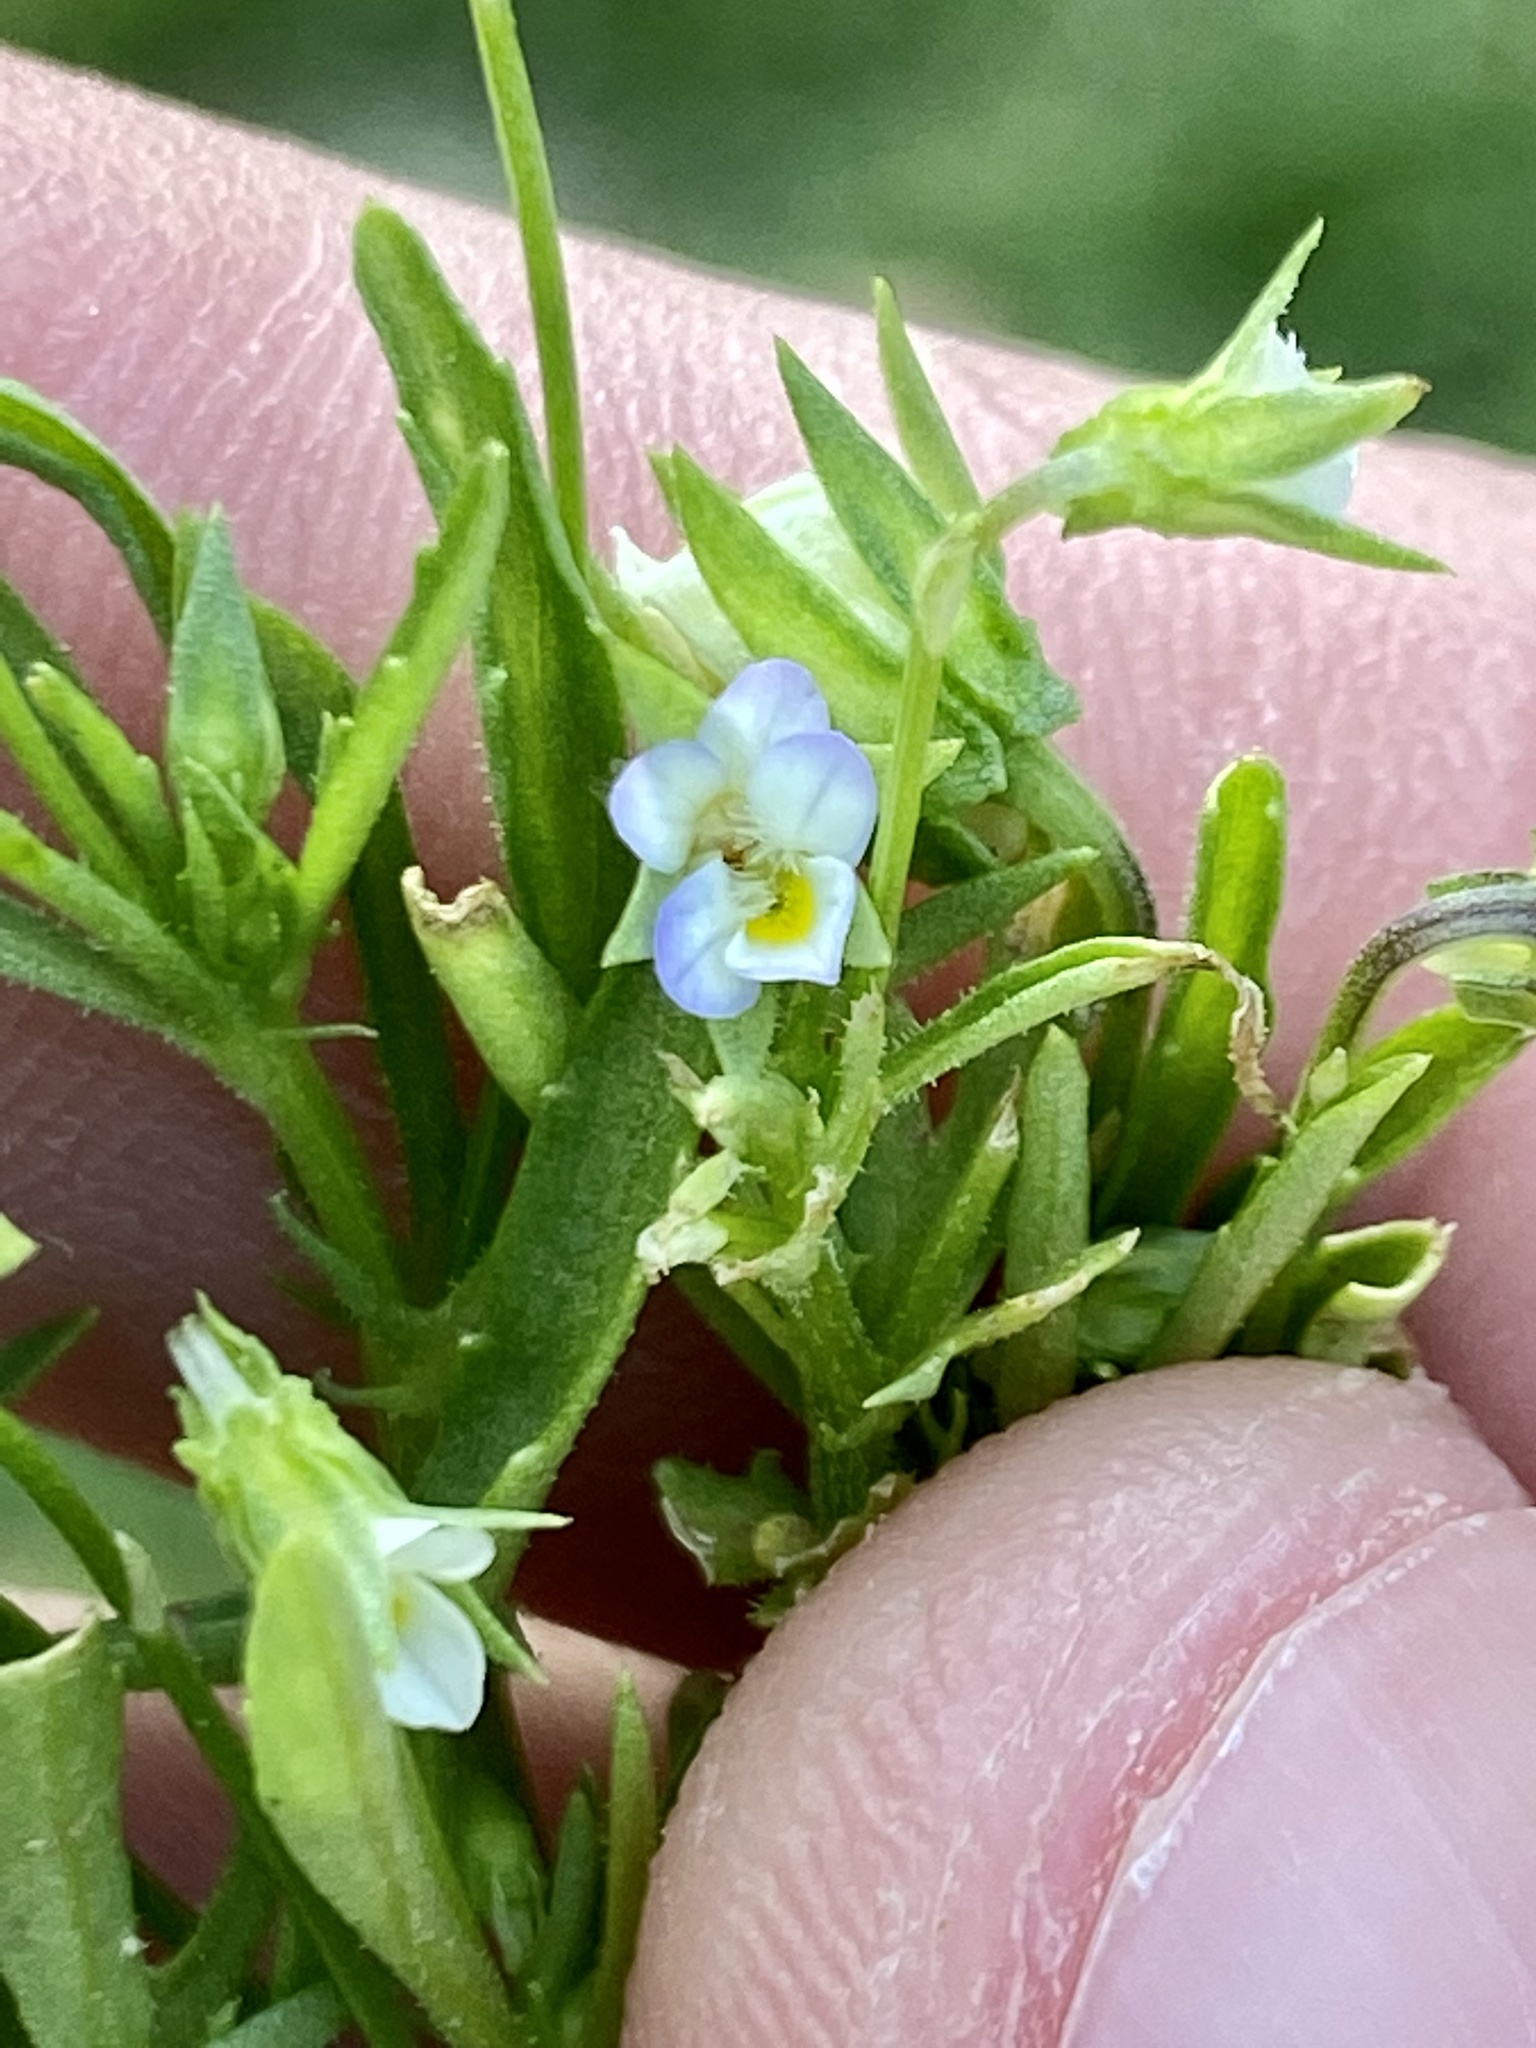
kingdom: Plantae
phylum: Tracheophyta
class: Magnoliopsida
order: Malpighiales
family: Violaceae
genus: Viola
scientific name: Viola arvensis
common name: Field pansy
